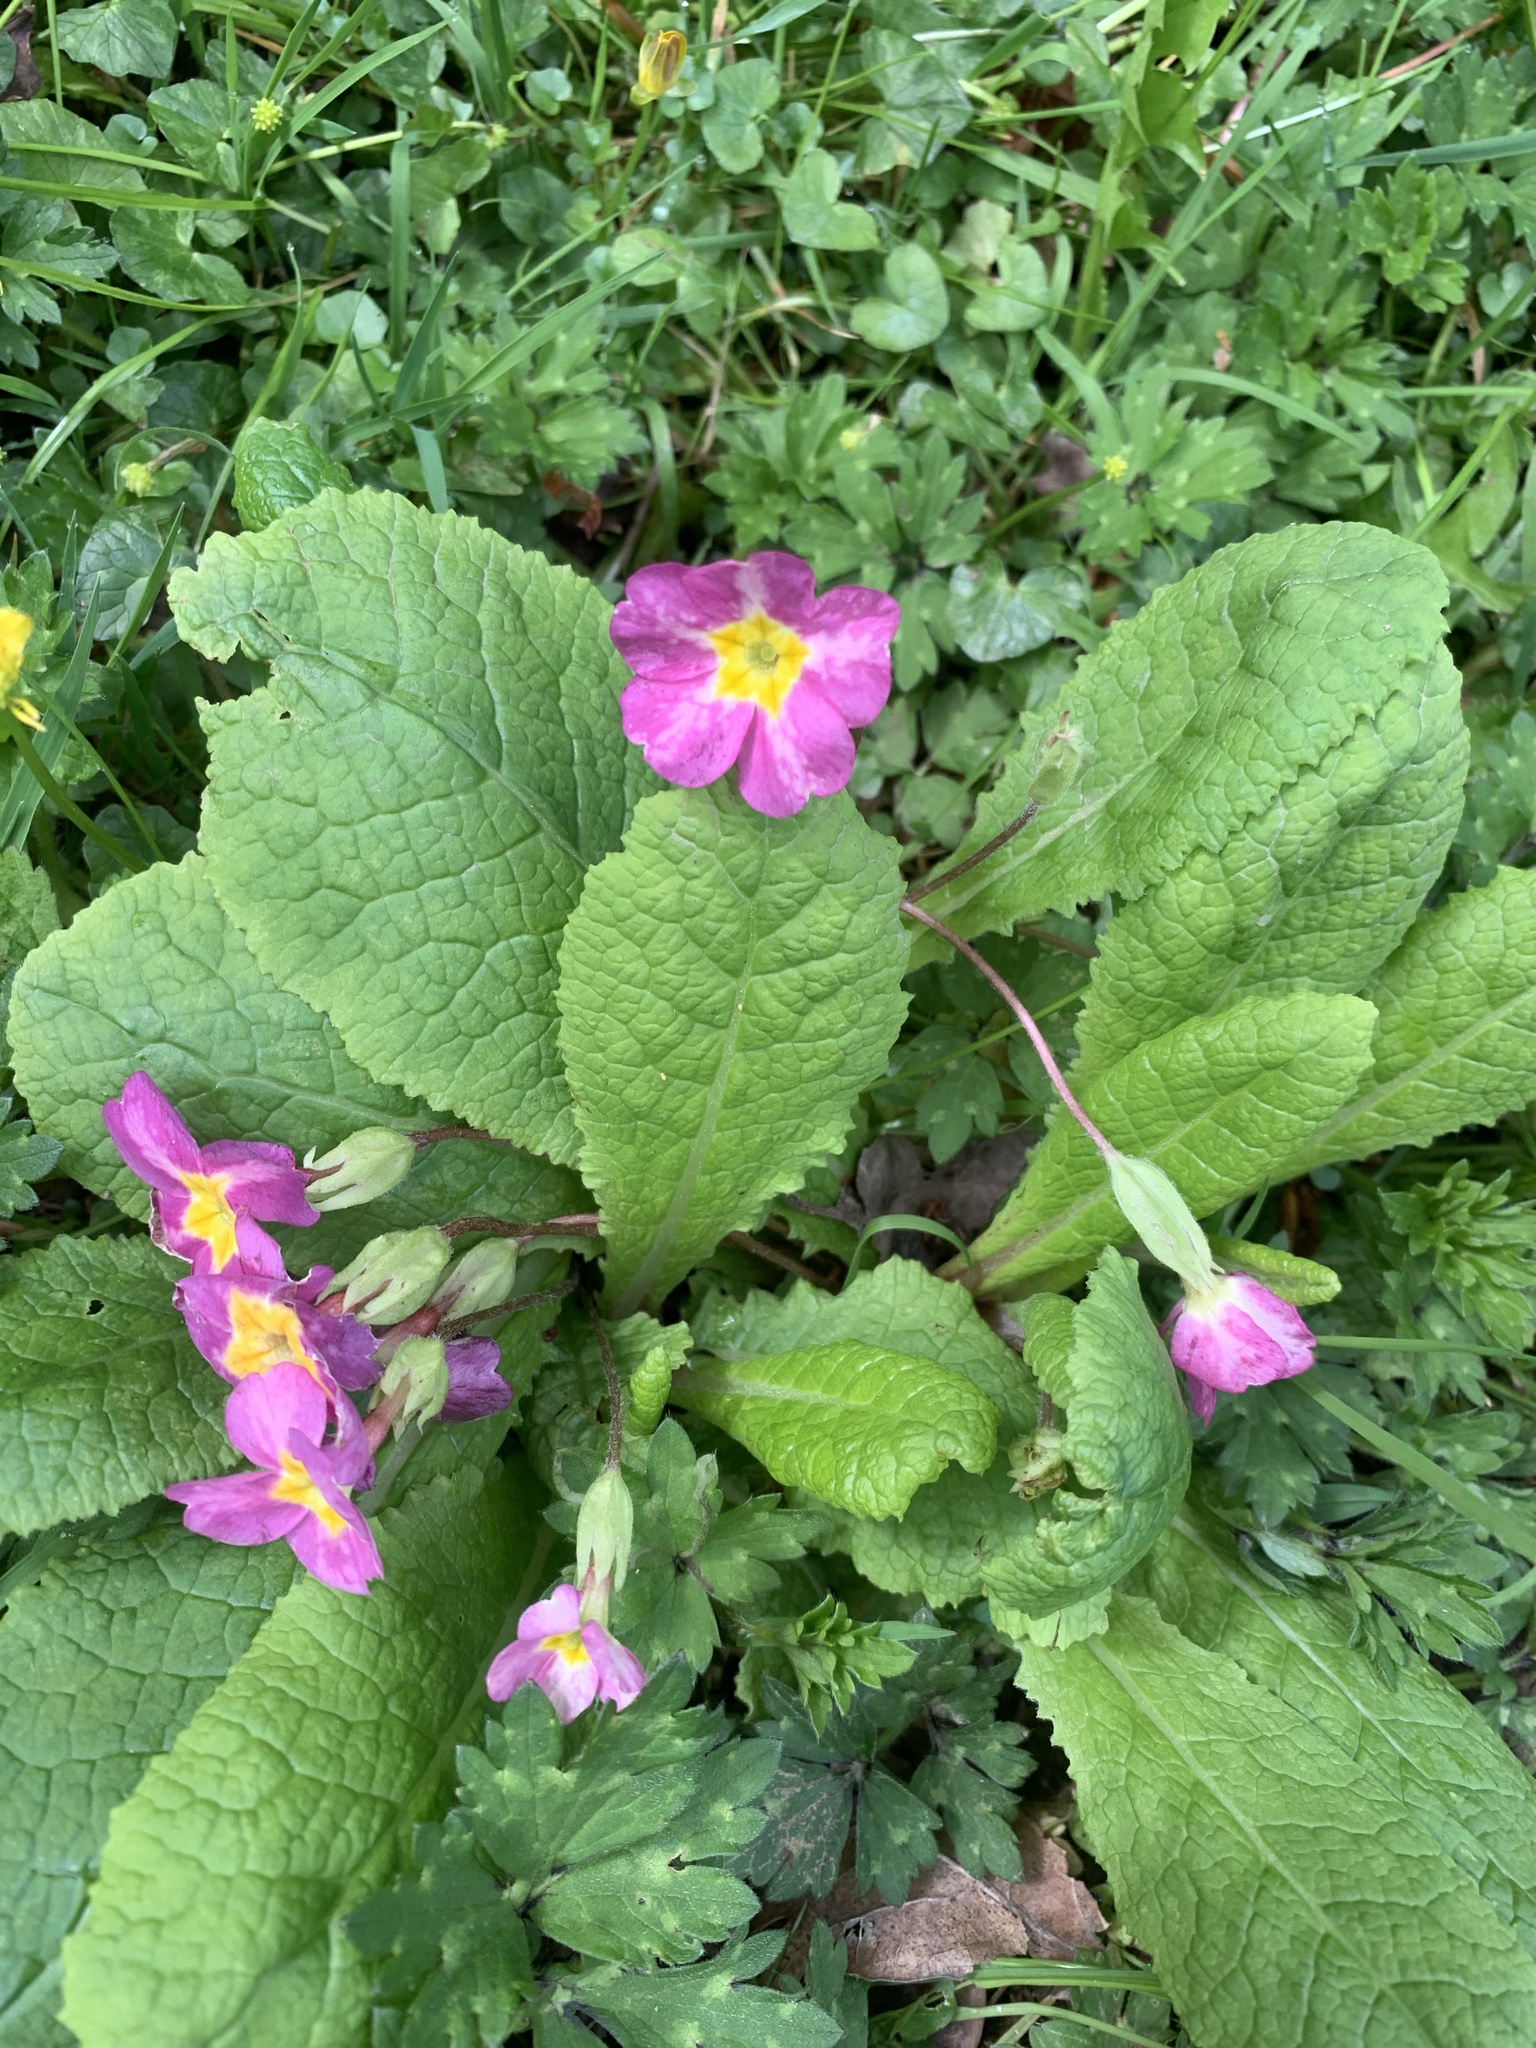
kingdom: Plantae
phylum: Tracheophyta
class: Magnoliopsida
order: Ericales
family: Primulaceae
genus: Primula
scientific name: Primula vulgaris
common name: Primrose
